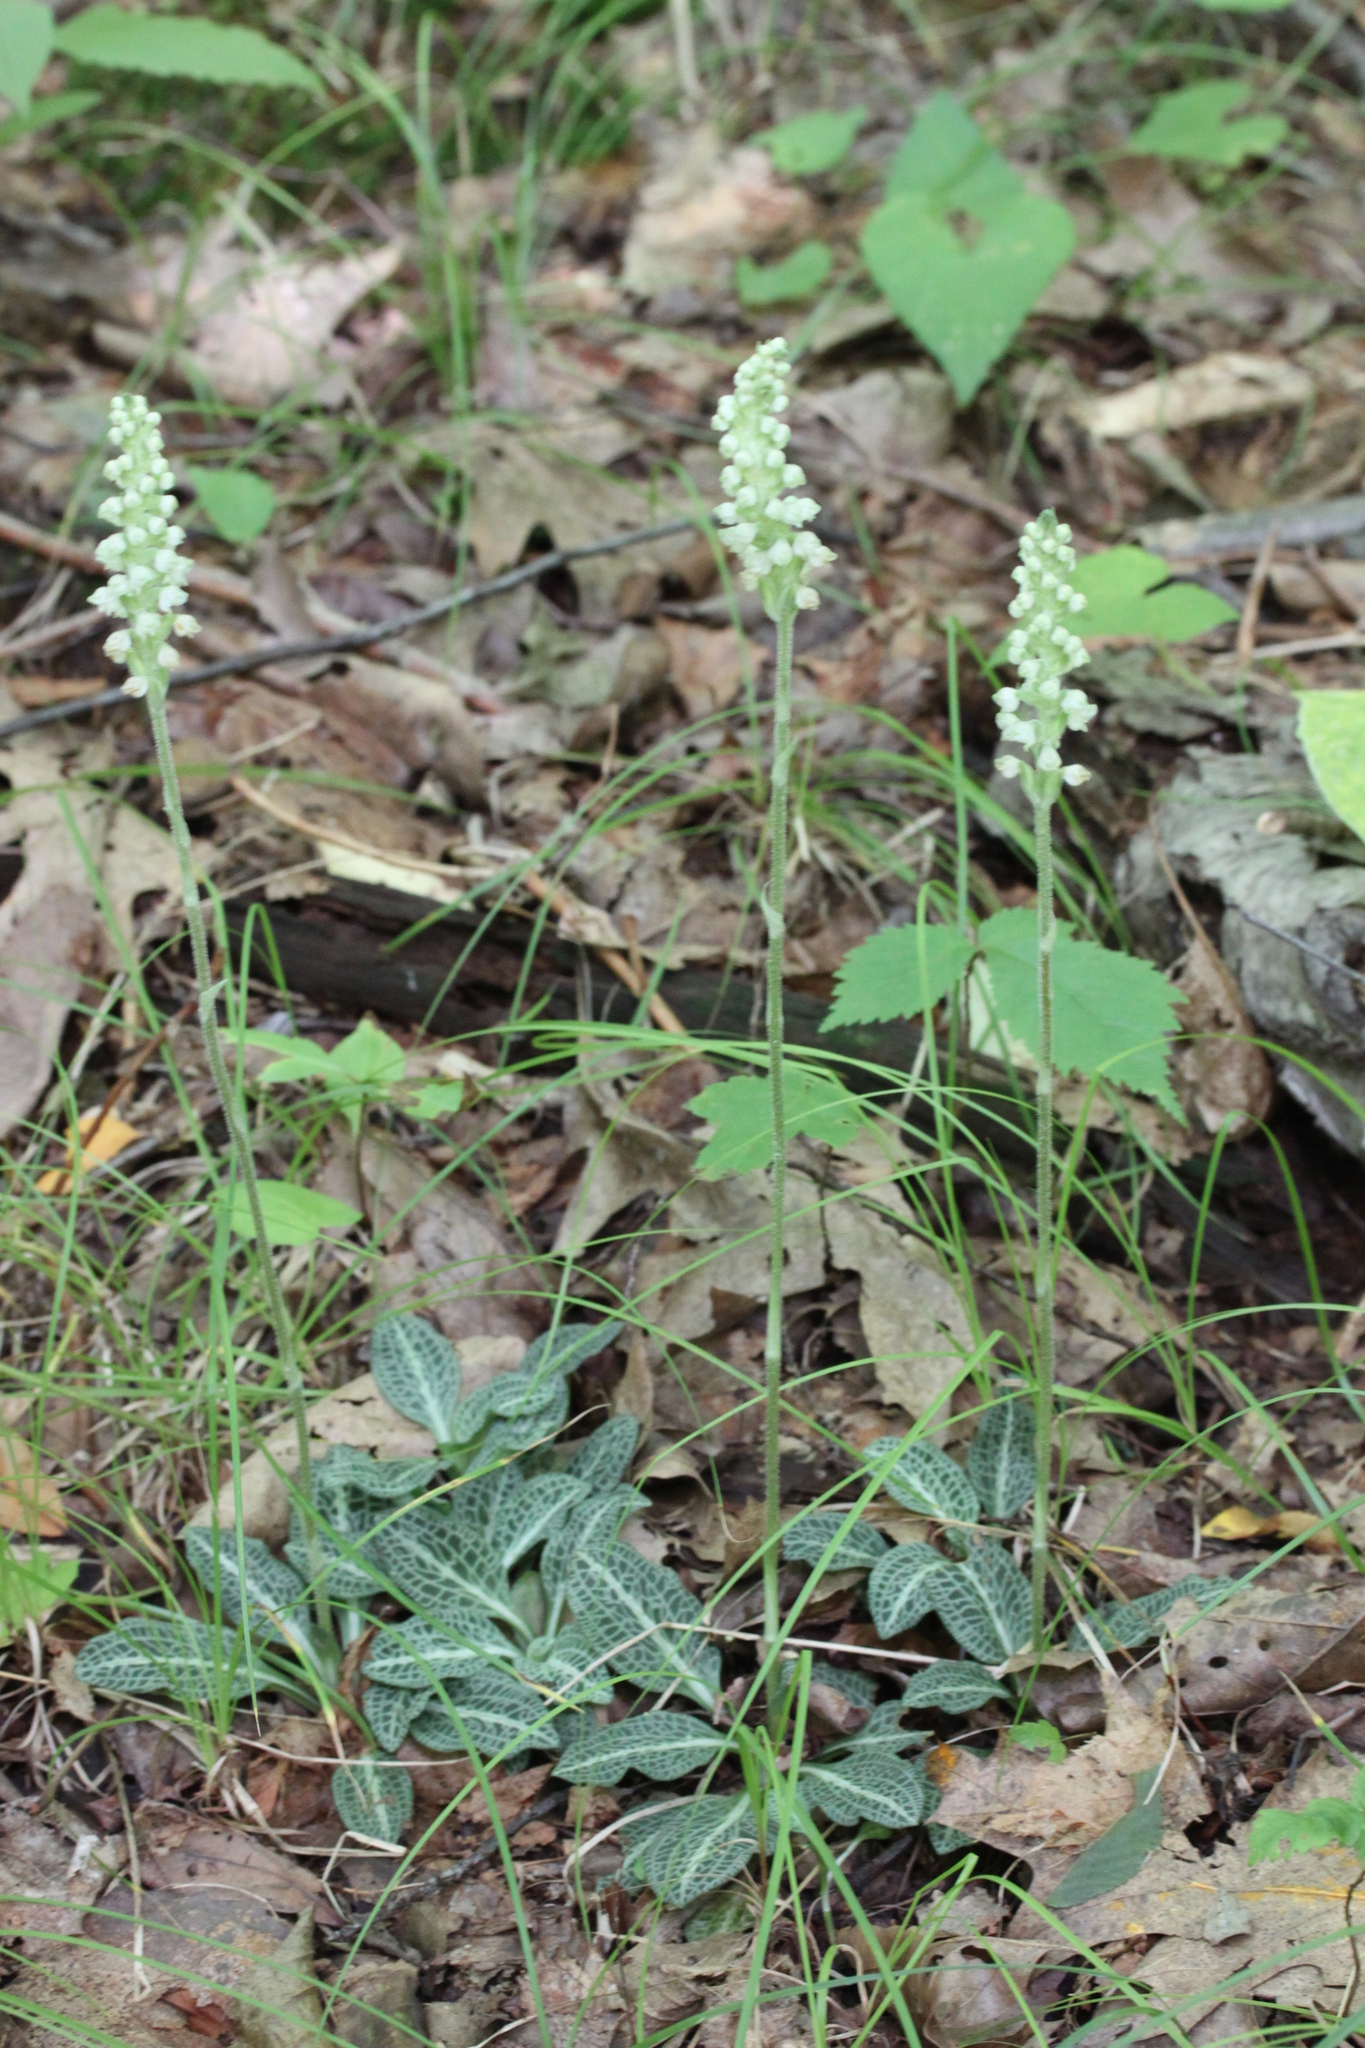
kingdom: Plantae
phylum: Tracheophyta
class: Liliopsida
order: Asparagales
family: Orchidaceae
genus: Goodyera
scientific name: Goodyera pubescens
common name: Downy rattlesnake-plantain
